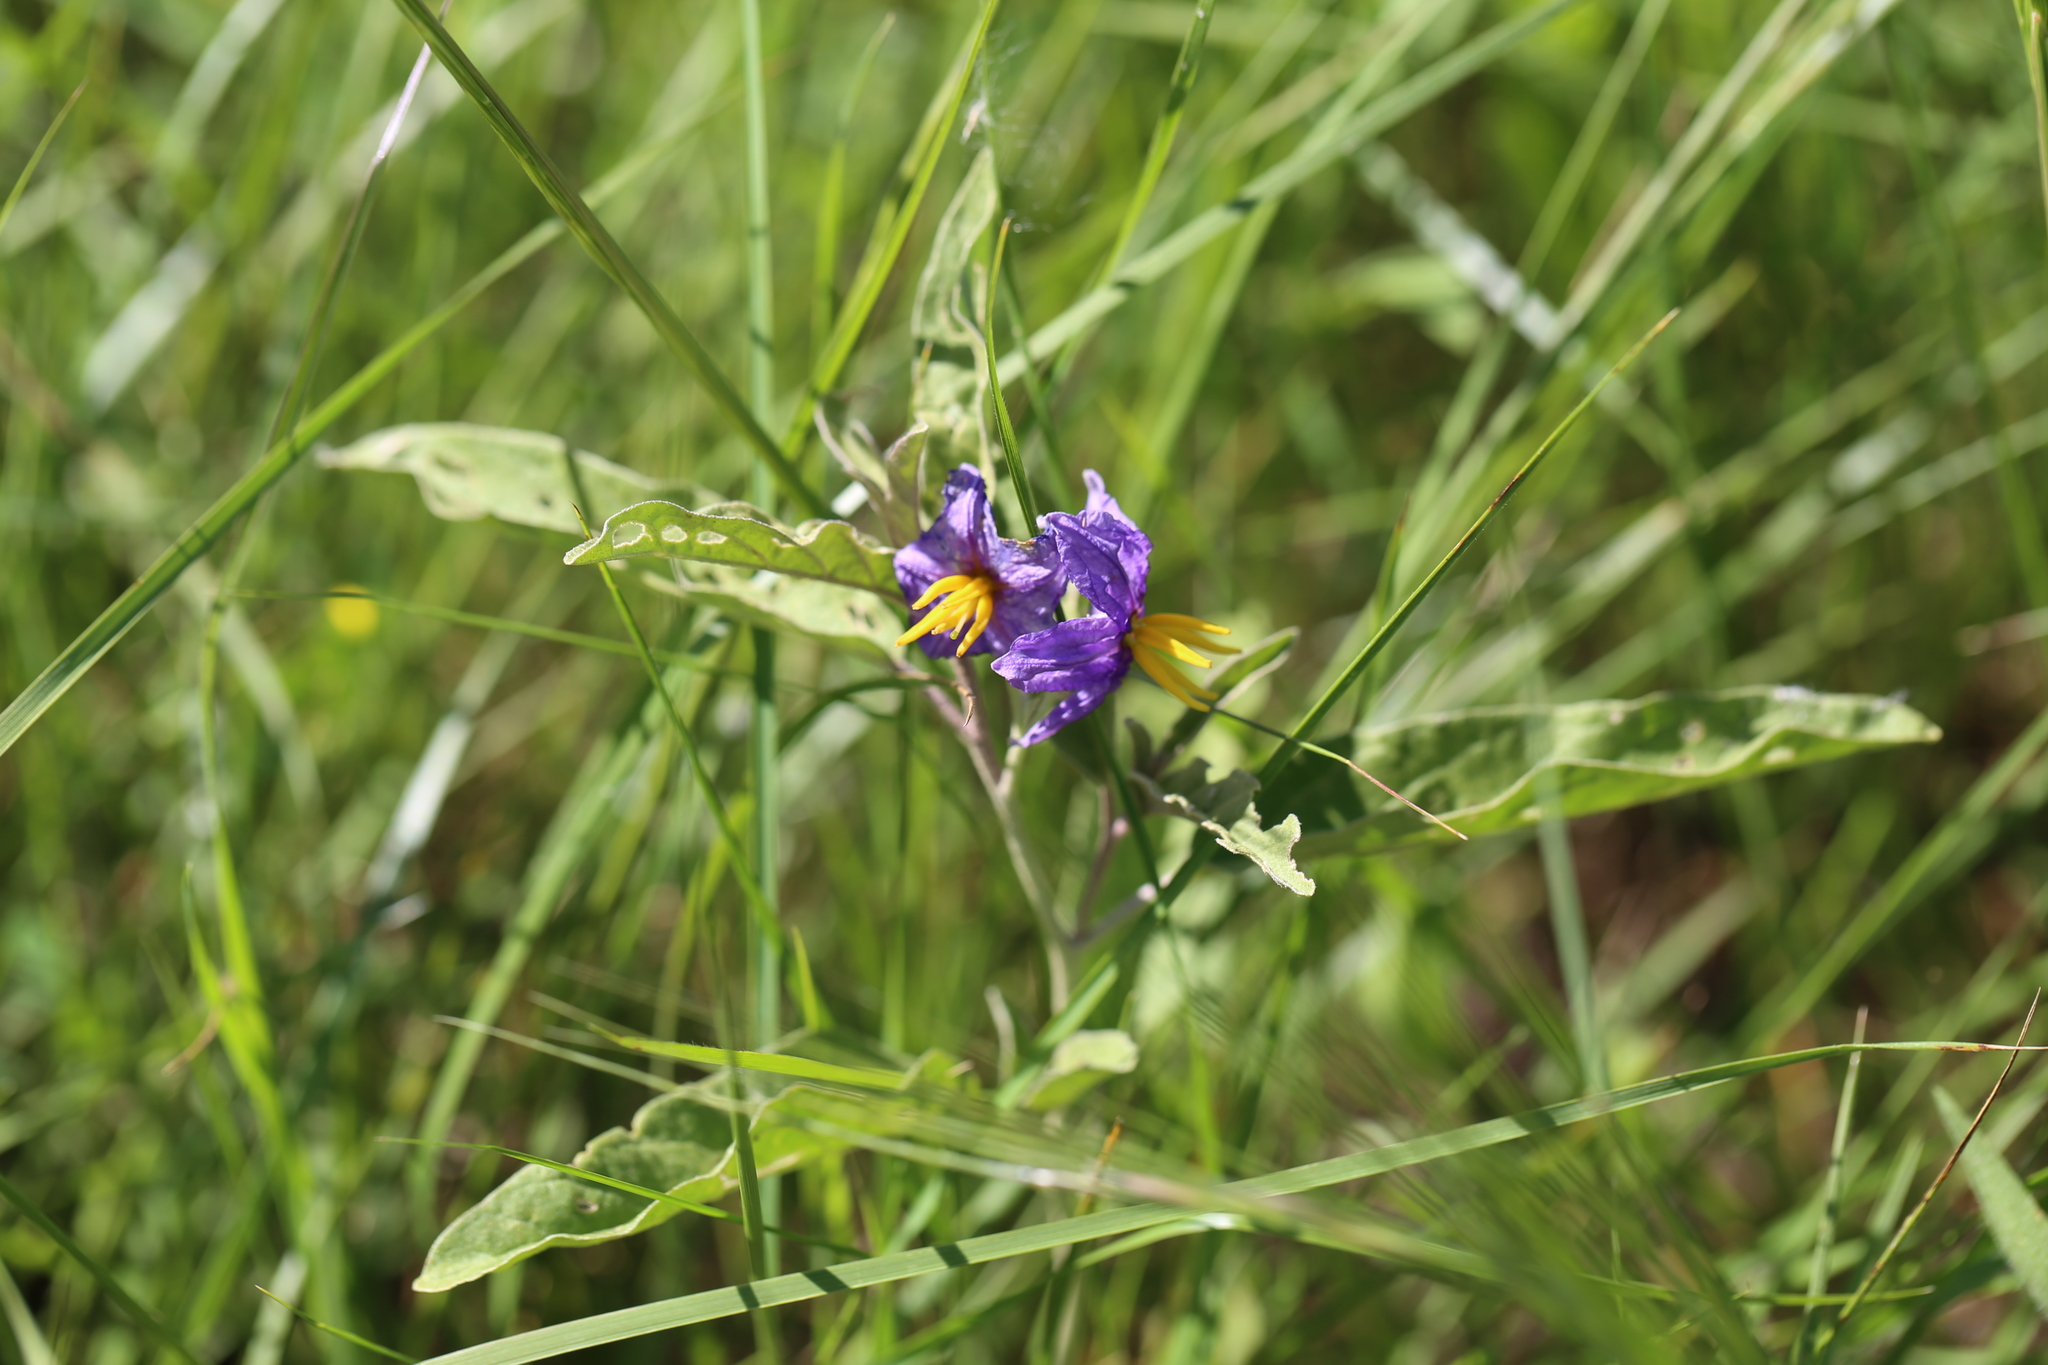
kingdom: Plantae
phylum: Tracheophyta
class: Magnoliopsida
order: Solanales
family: Solanaceae
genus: Solanum
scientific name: Solanum elaeagnifolium
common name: Silverleaf nightshade
